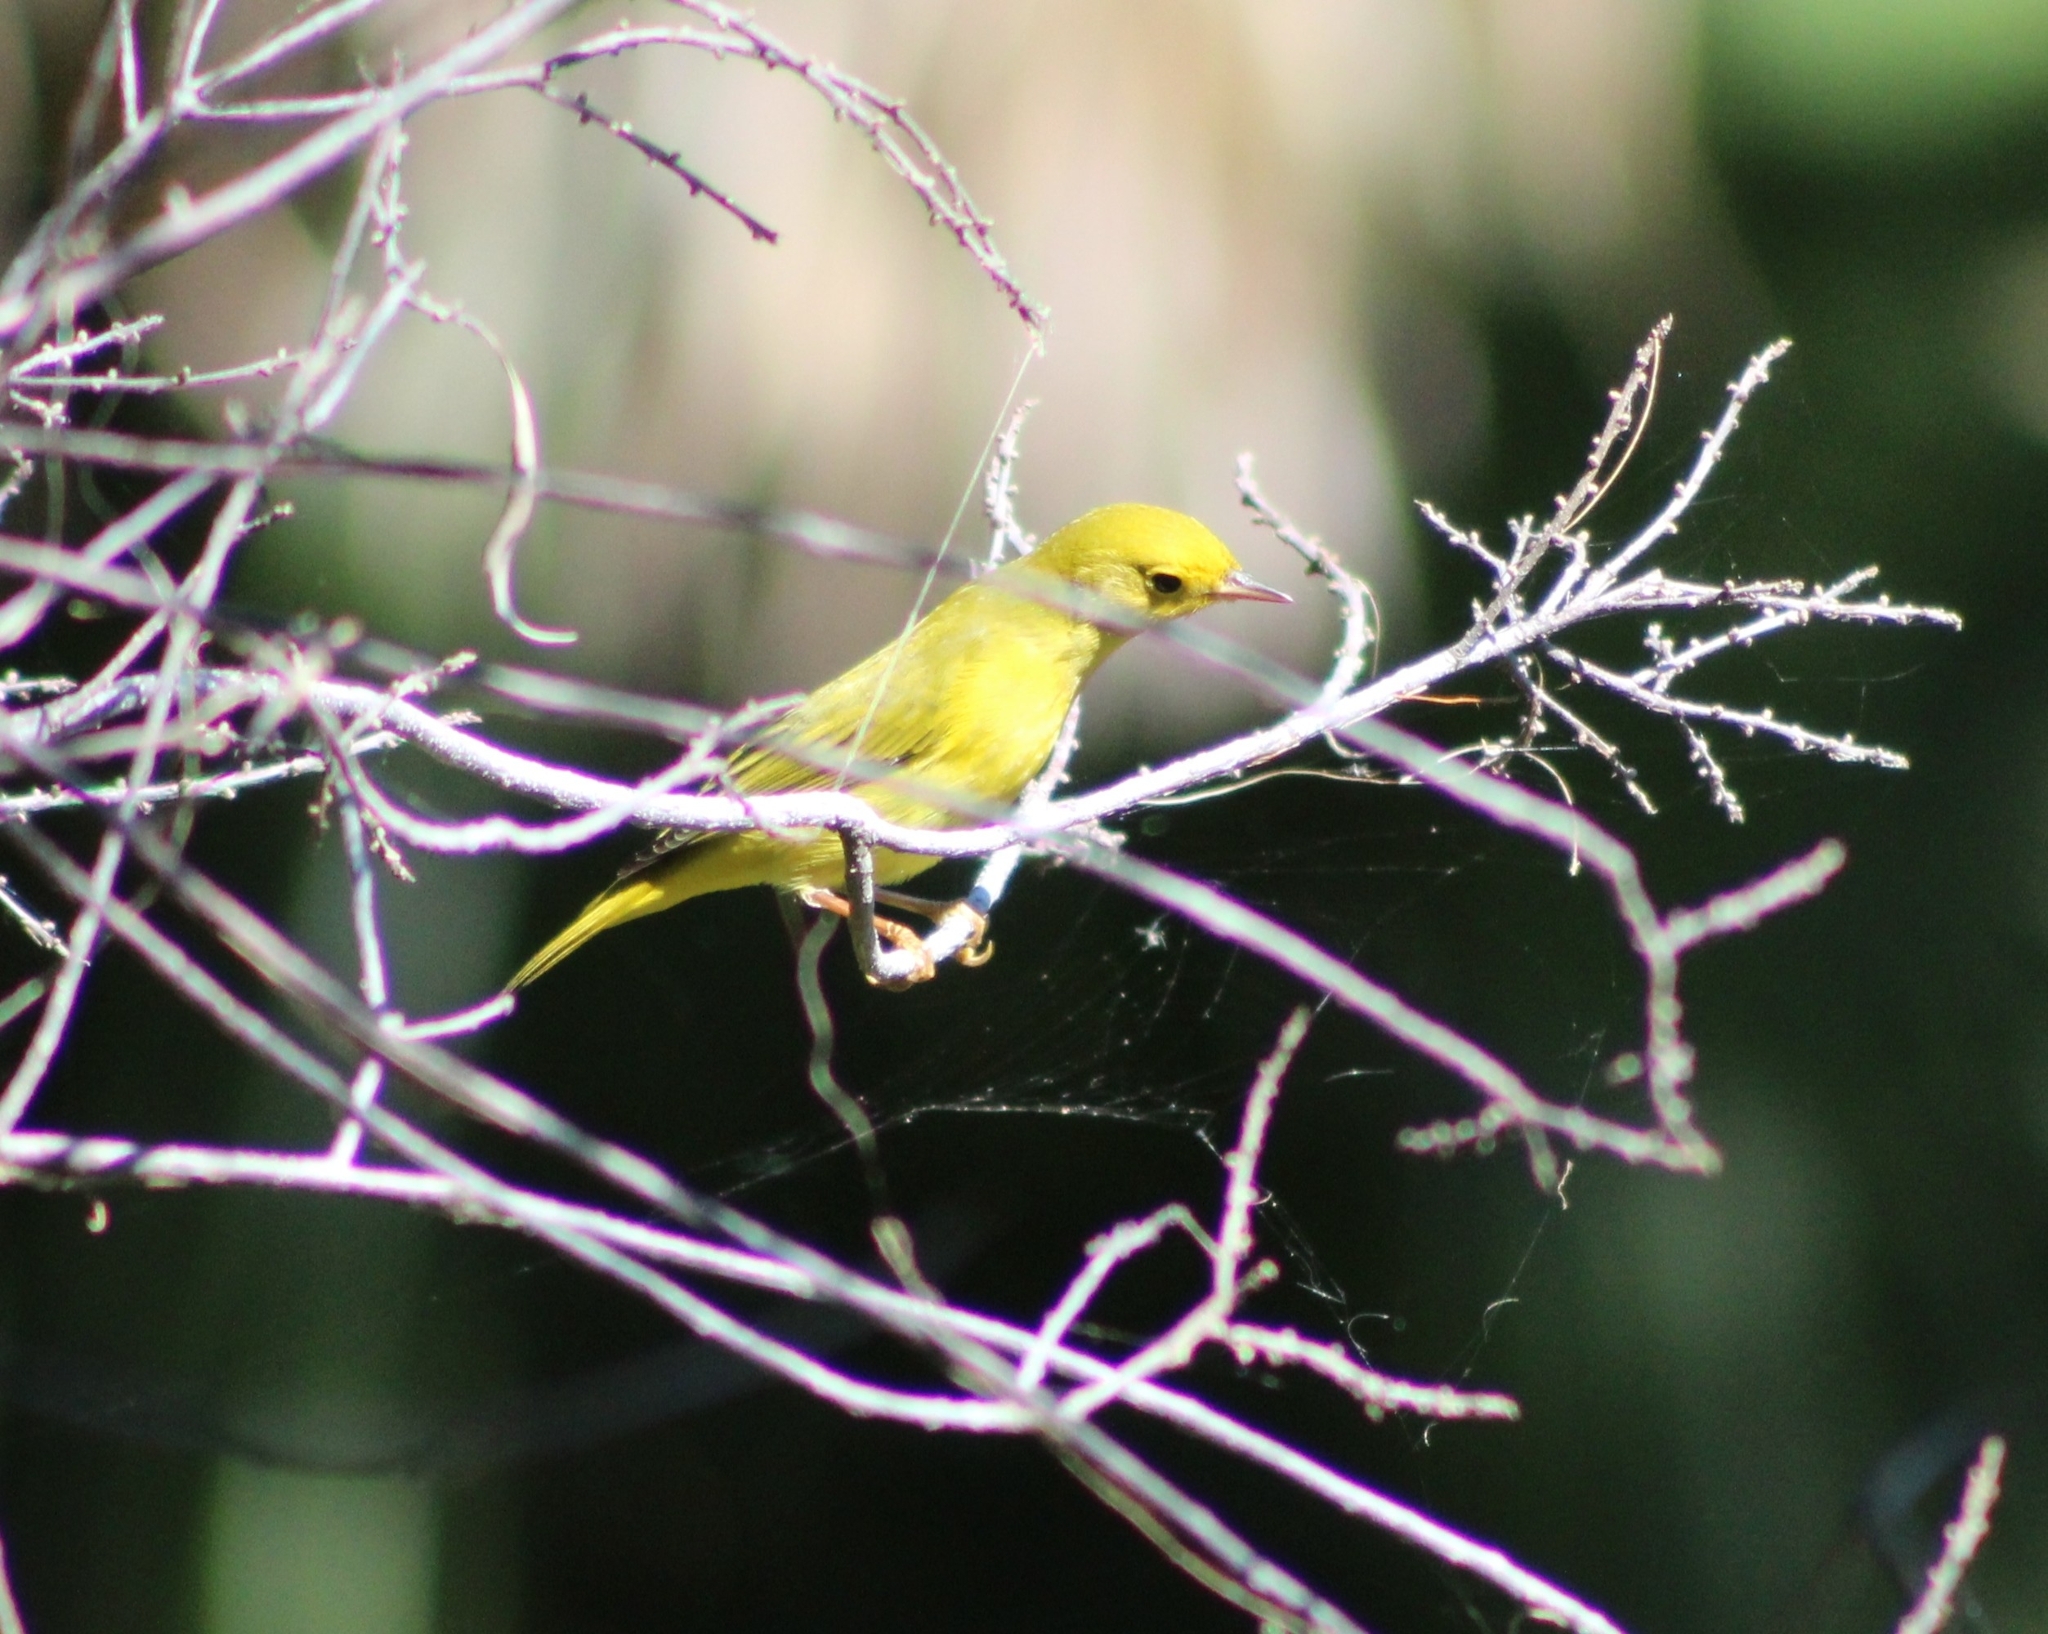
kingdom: Animalia
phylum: Chordata
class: Aves
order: Passeriformes
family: Parulidae
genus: Setophaga
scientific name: Setophaga petechia
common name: Yellow warbler
